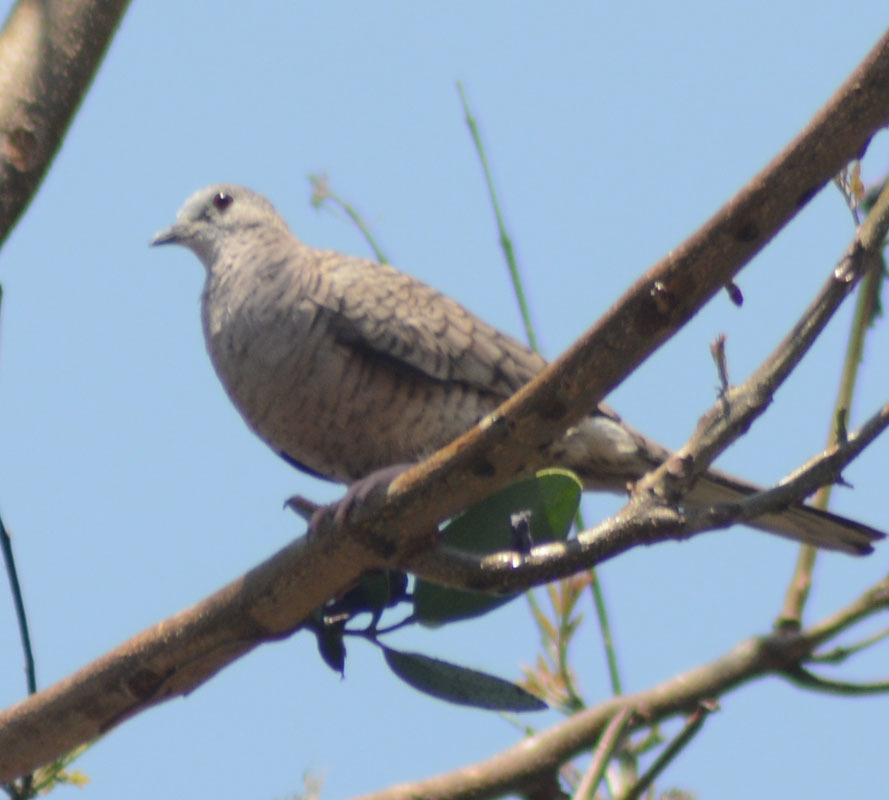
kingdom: Animalia
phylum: Chordata
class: Aves
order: Columbiformes
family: Columbidae
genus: Columbina
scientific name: Columbina inca
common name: Inca dove
